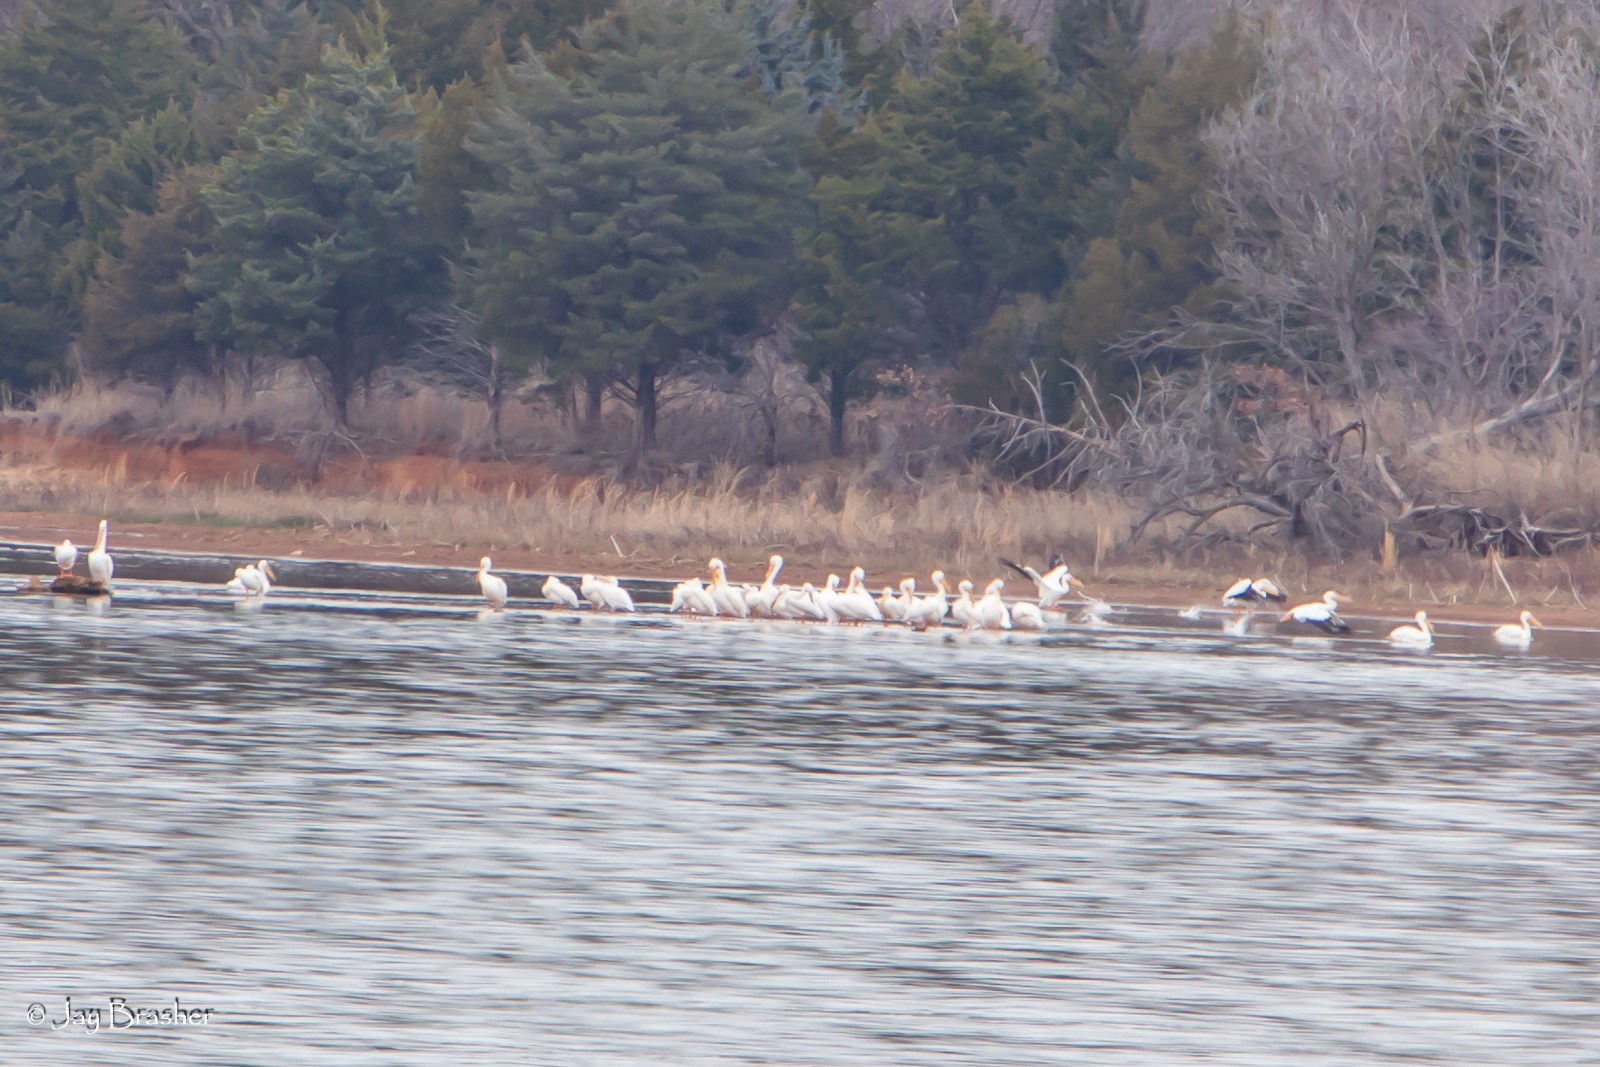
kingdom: Animalia
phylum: Chordata
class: Aves
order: Pelecaniformes
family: Pelecanidae
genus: Pelecanus
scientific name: Pelecanus erythrorhynchos
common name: American white pelican
